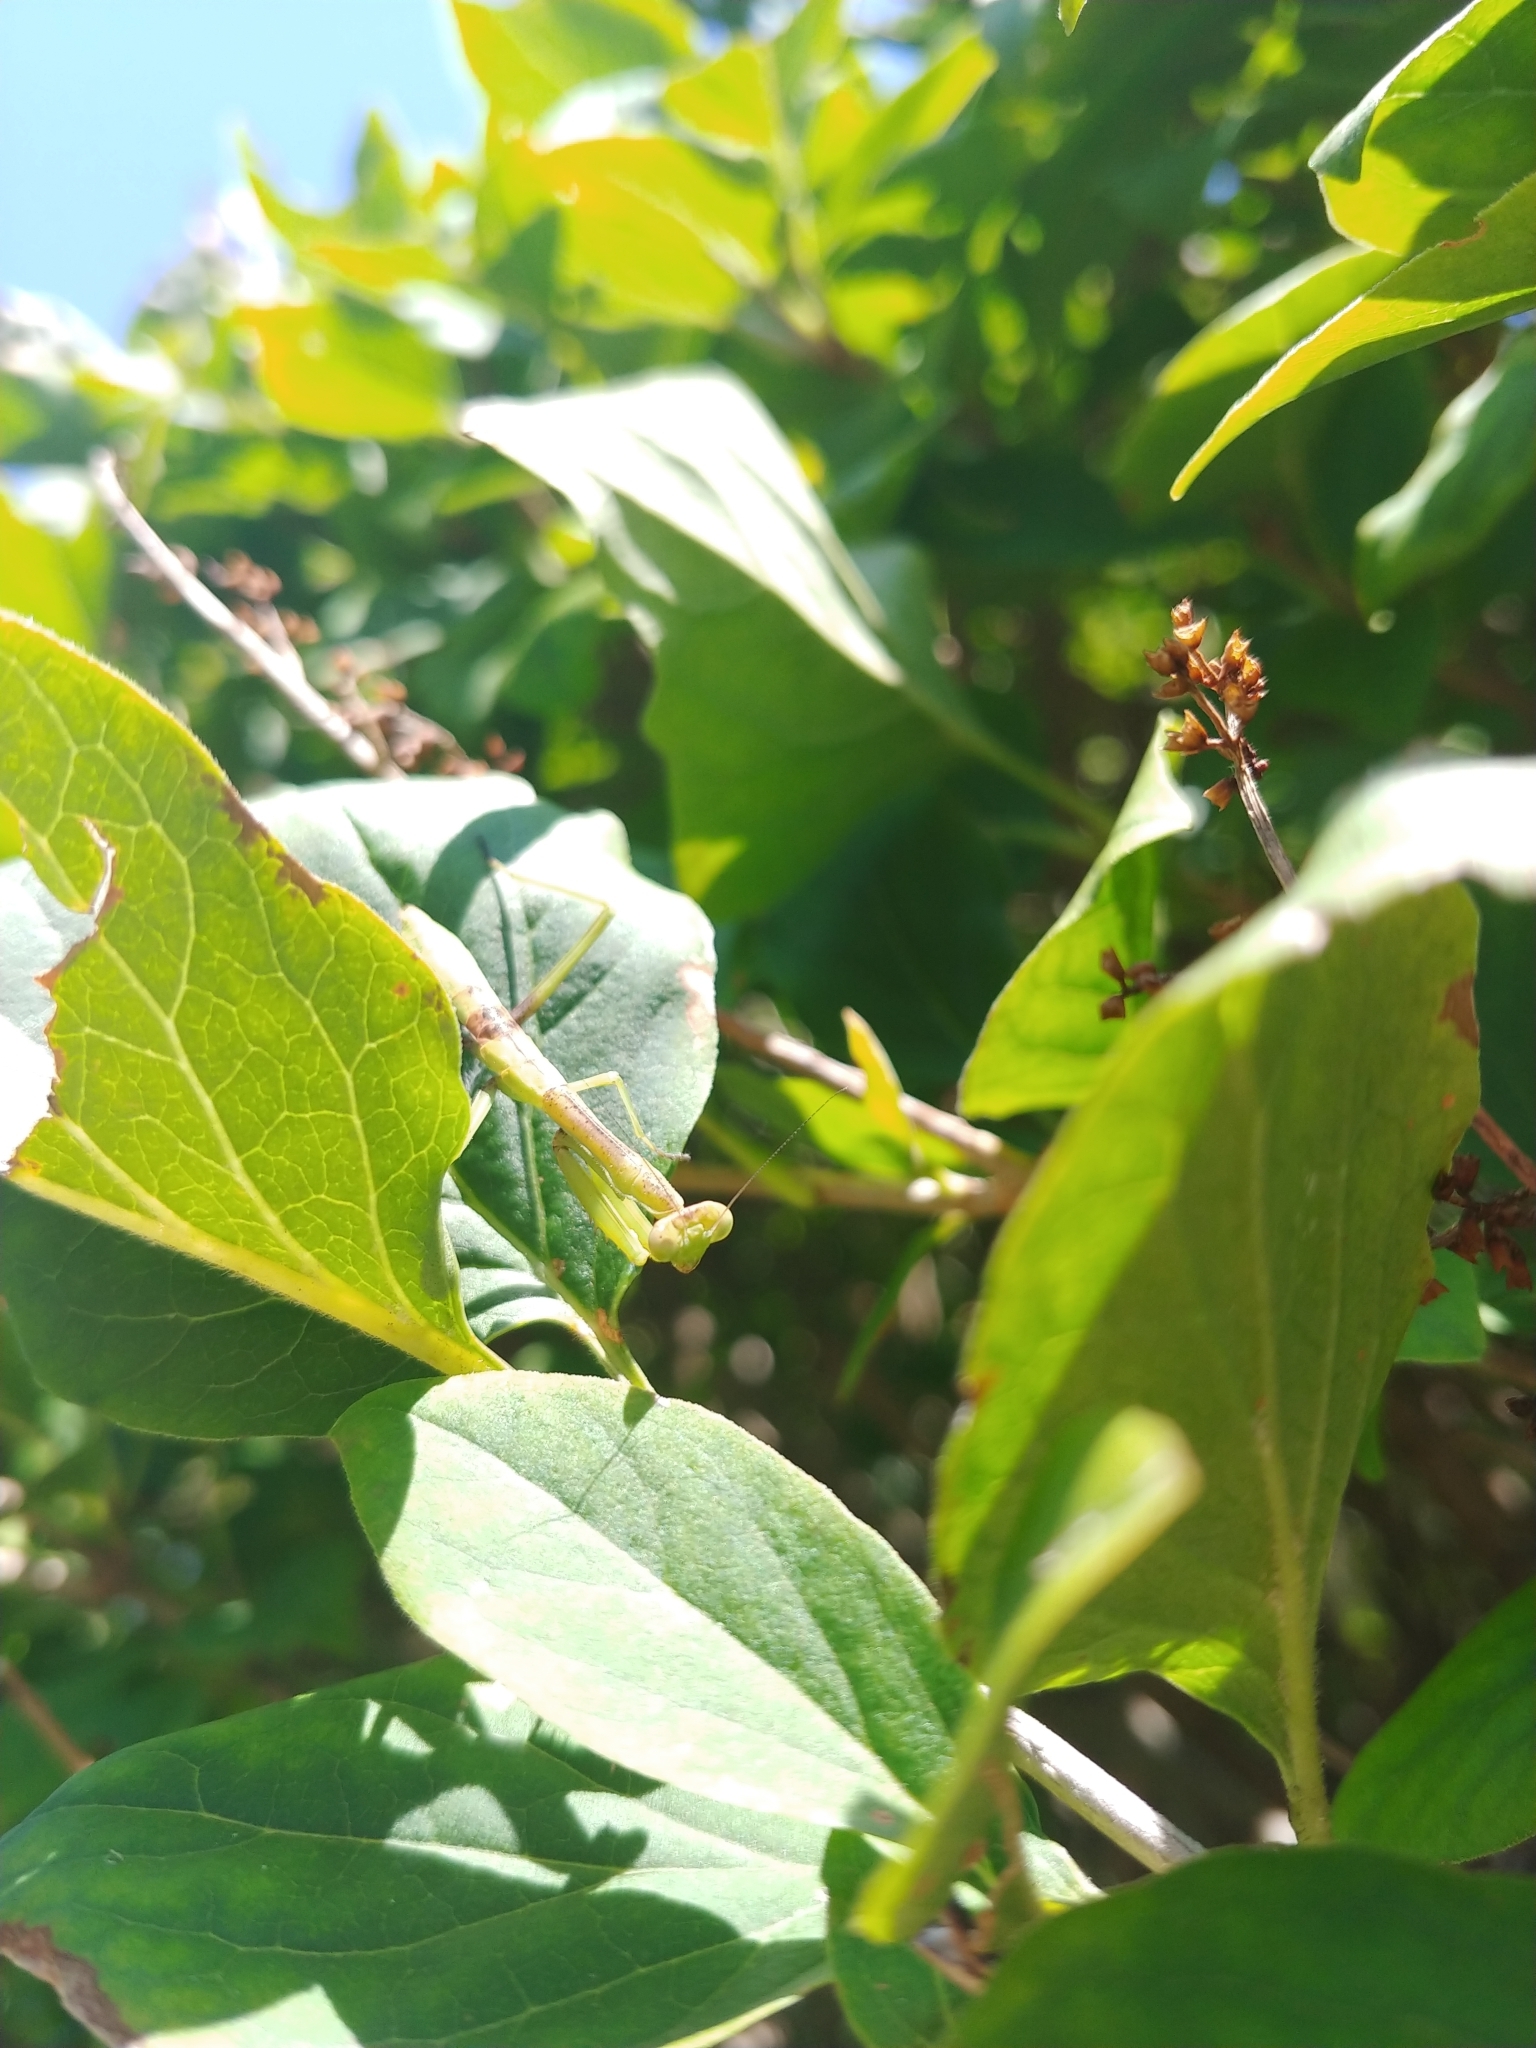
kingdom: Animalia
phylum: Arthropoda
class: Insecta
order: Mantodea
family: Mantidae
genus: Stagmomantis
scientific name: Stagmomantis carolina
